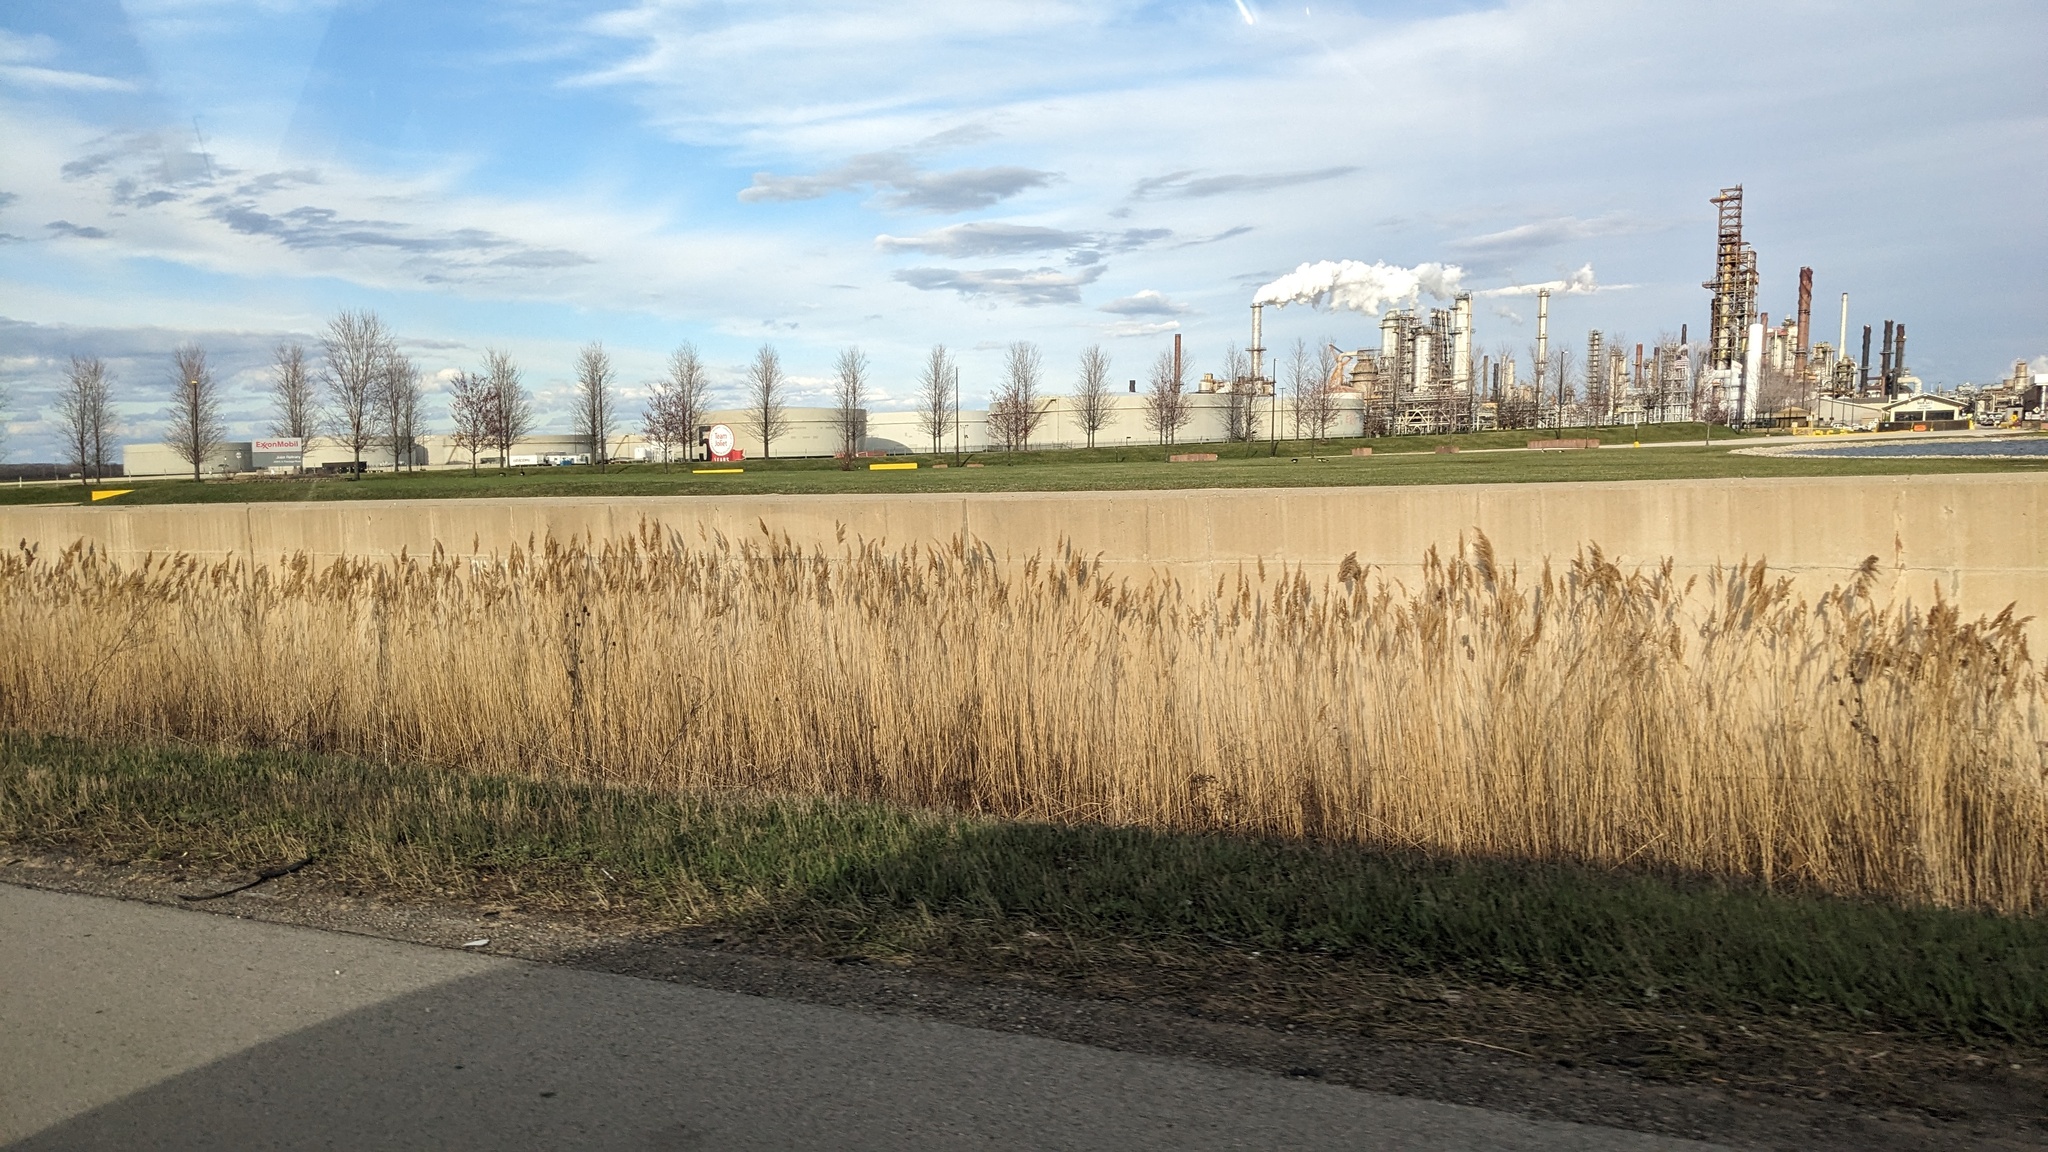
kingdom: Plantae
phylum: Tracheophyta
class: Liliopsida
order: Poales
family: Poaceae
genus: Phragmites
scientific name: Phragmites australis
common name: Common reed
